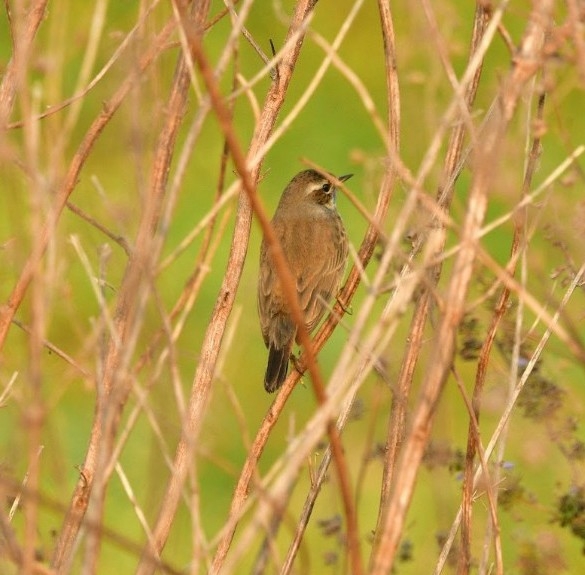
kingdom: Animalia
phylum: Chordata
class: Aves
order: Passeriformes
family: Muscicapidae
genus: Luscinia
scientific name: Luscinia svecica
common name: Bluethroat
